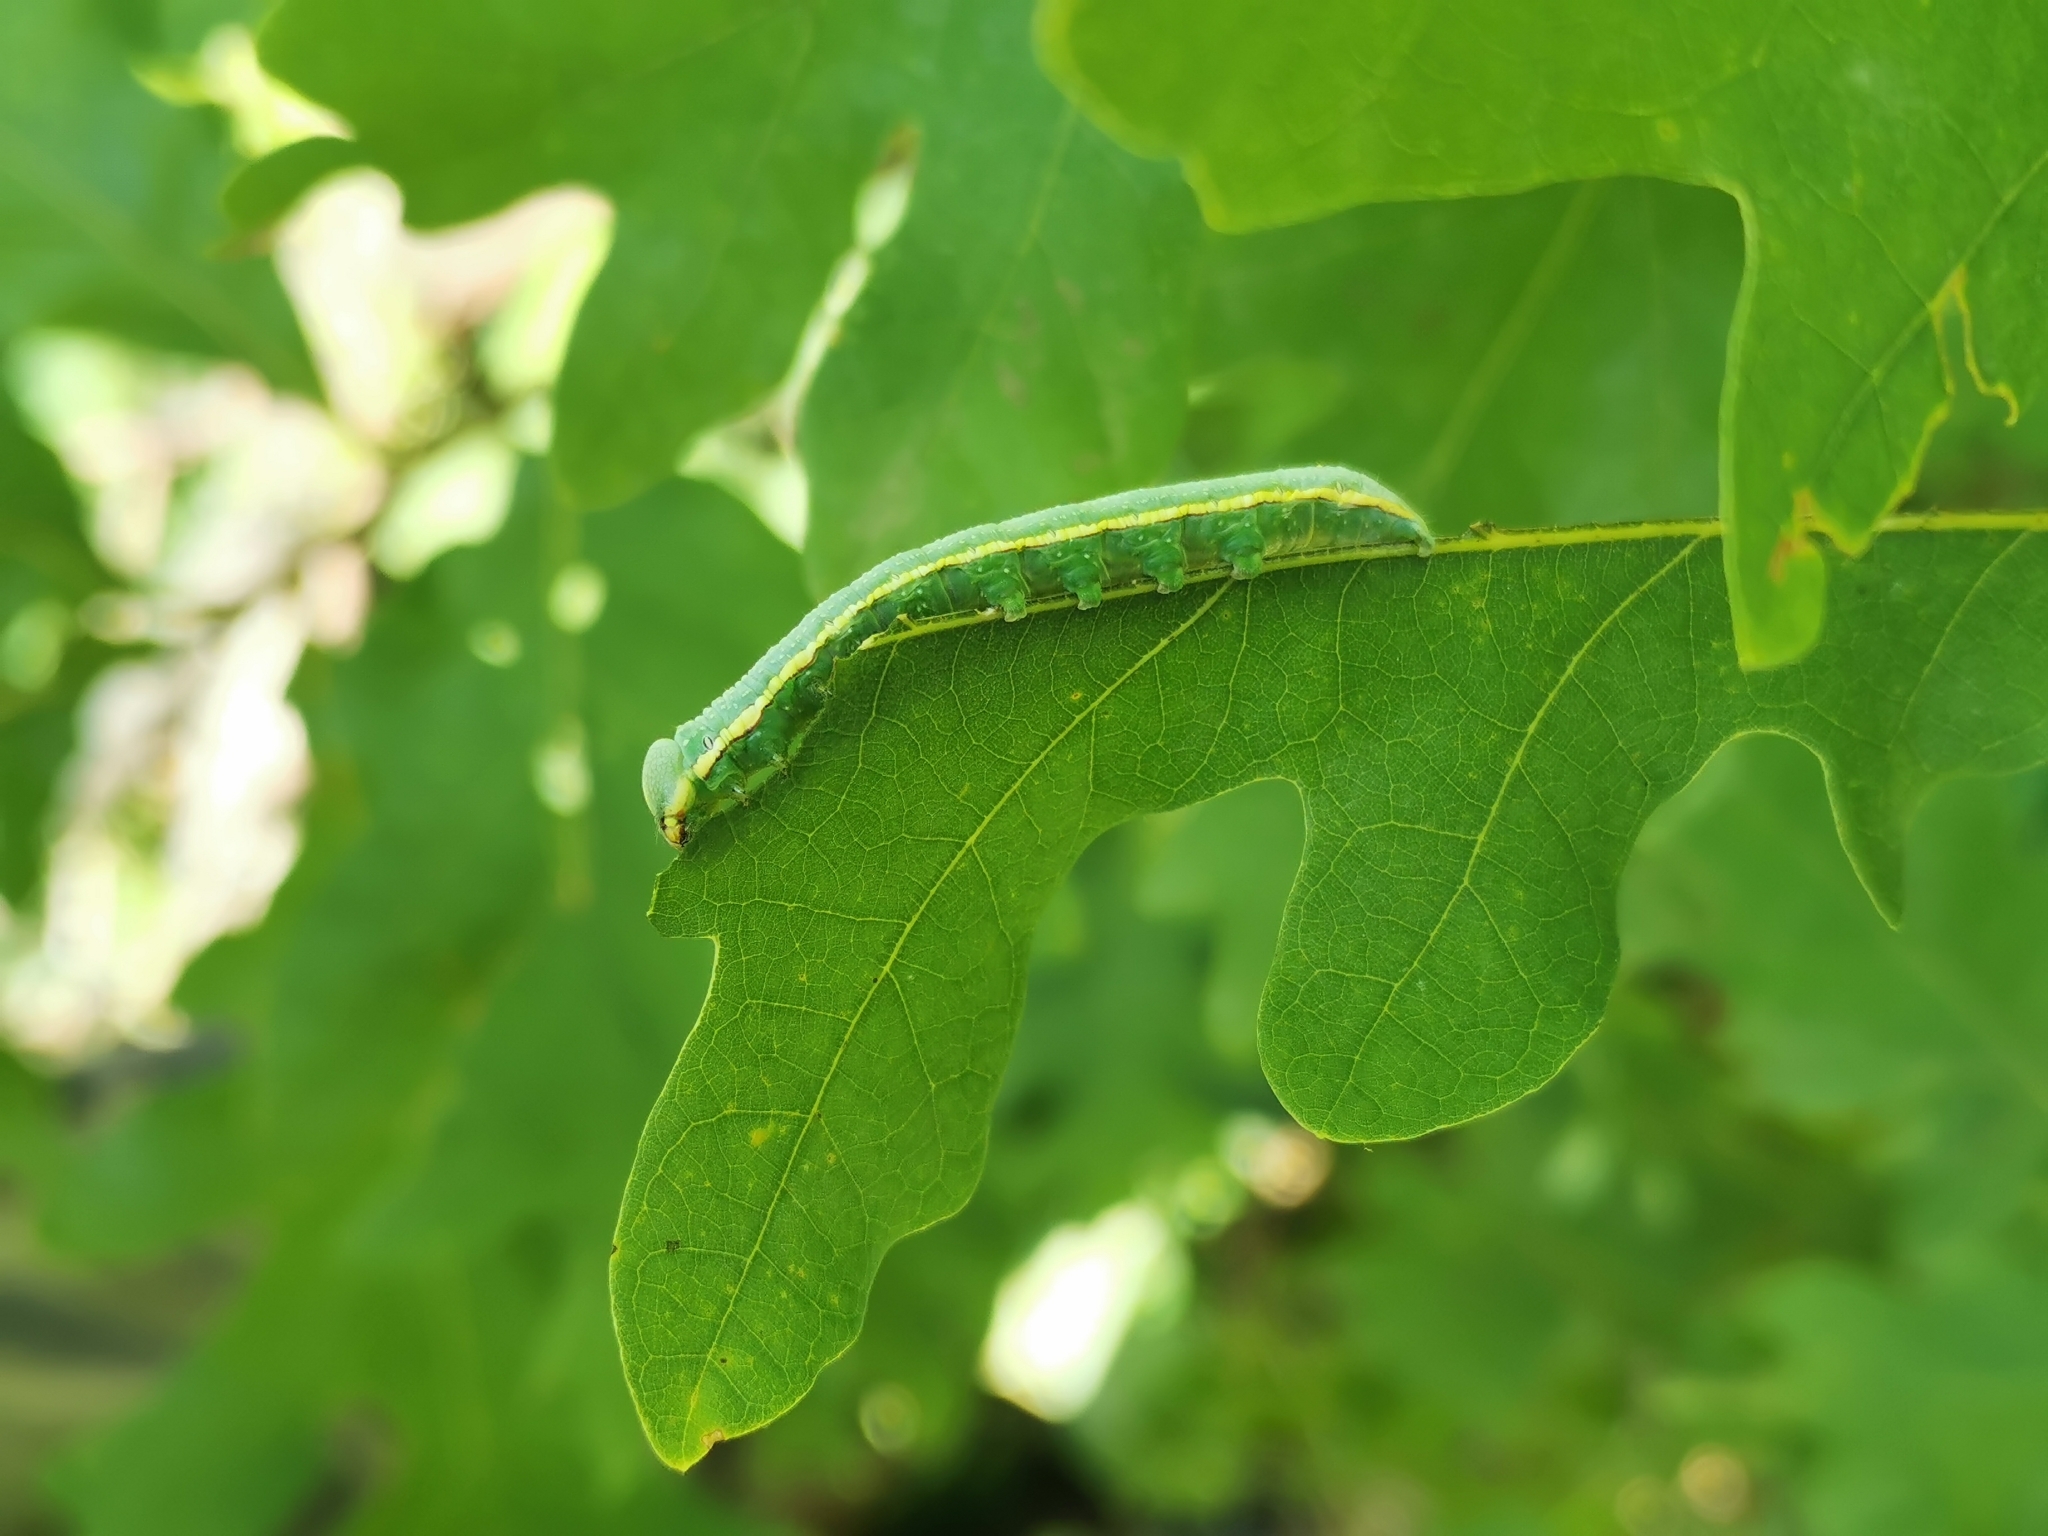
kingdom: Animalia
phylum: Arthropoda
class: Insecta
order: Lepidoptera
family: Notodontidae
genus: Paraeschra
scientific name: Paraeschra georgica
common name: Georgian prominent
